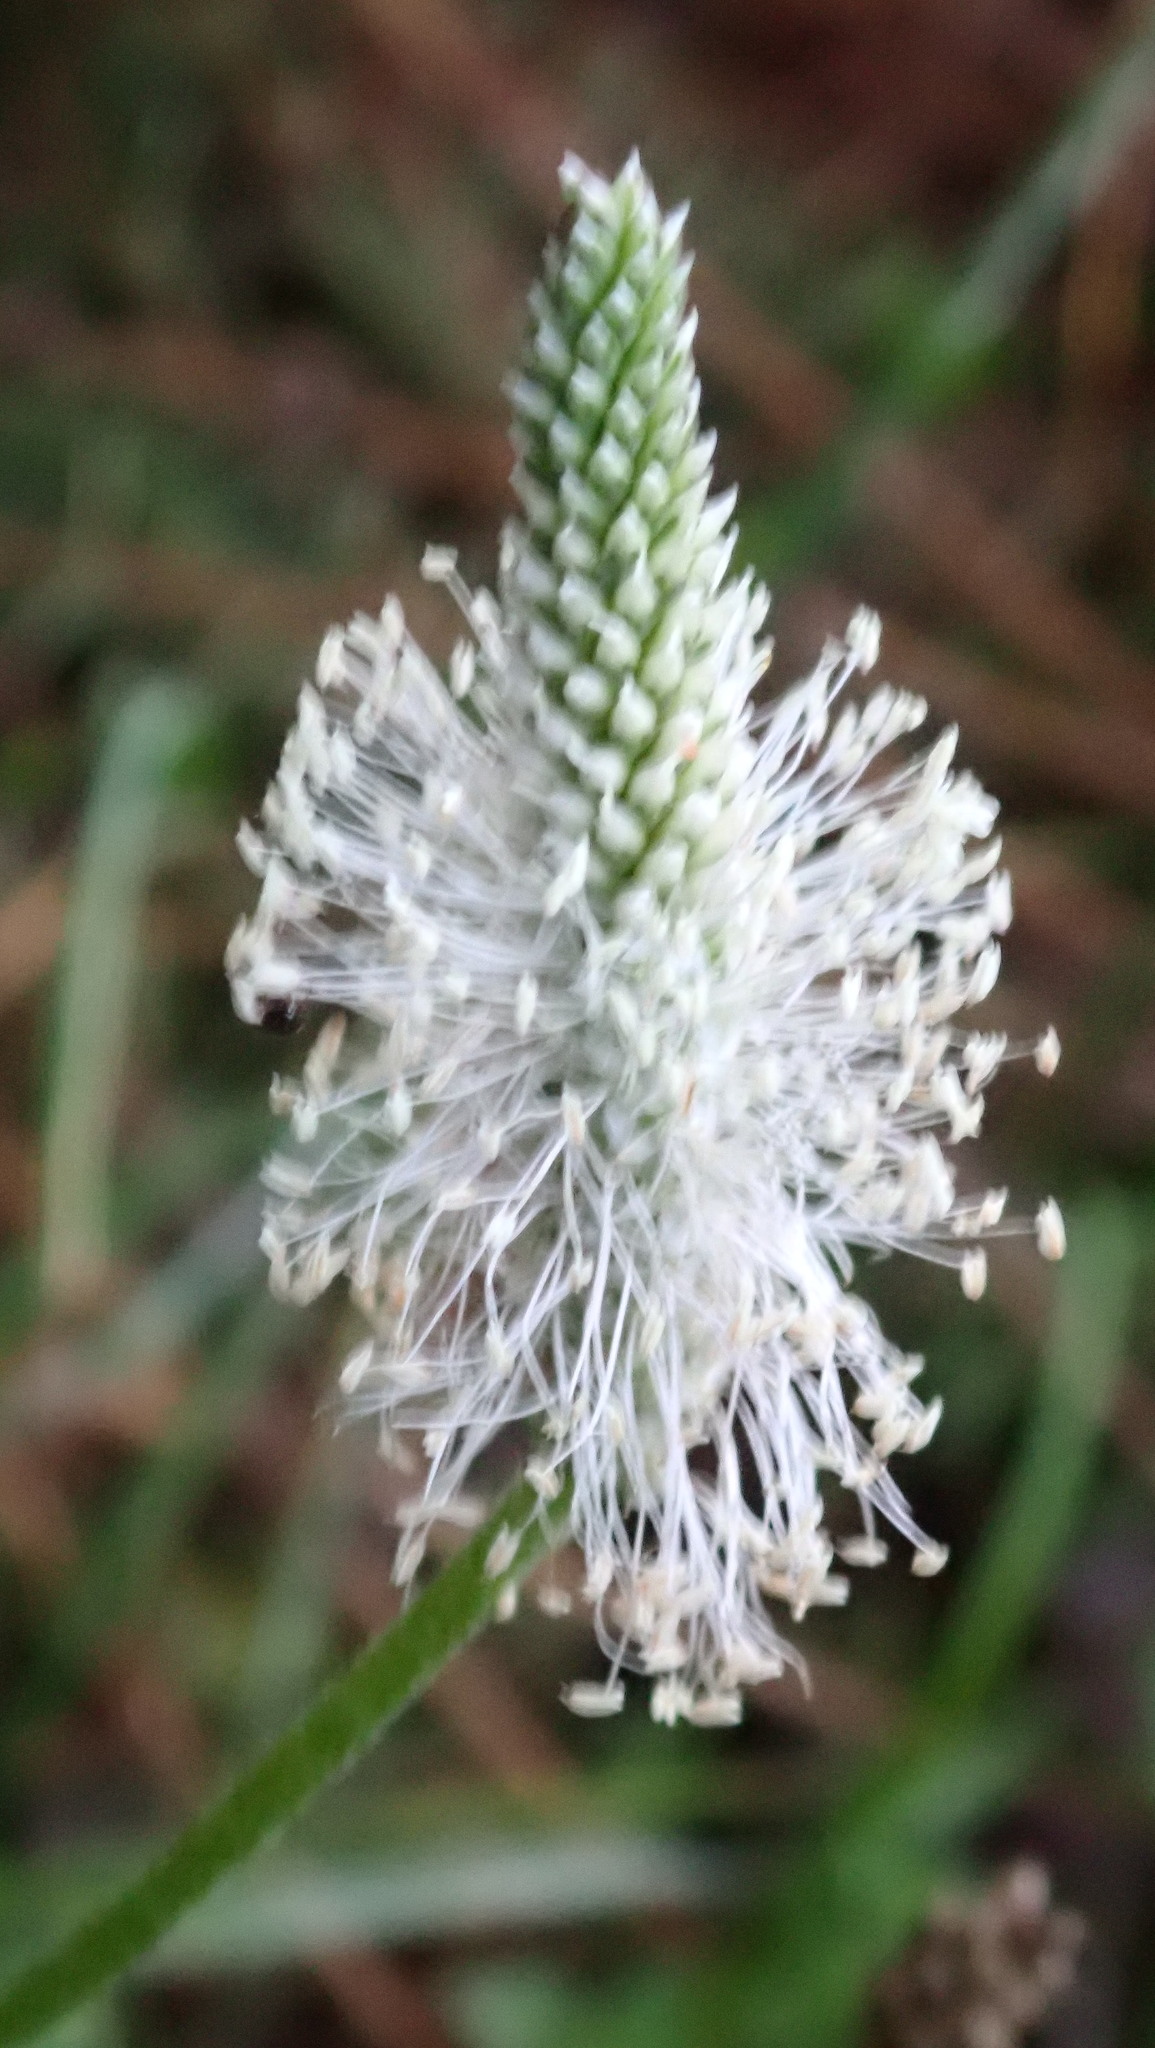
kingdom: Plantae
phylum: Tracheophyta
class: Magnoliopsida
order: Lamiales
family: Plantaginaceae
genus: Plantago
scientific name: Plantago media
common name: Hoary plantain
